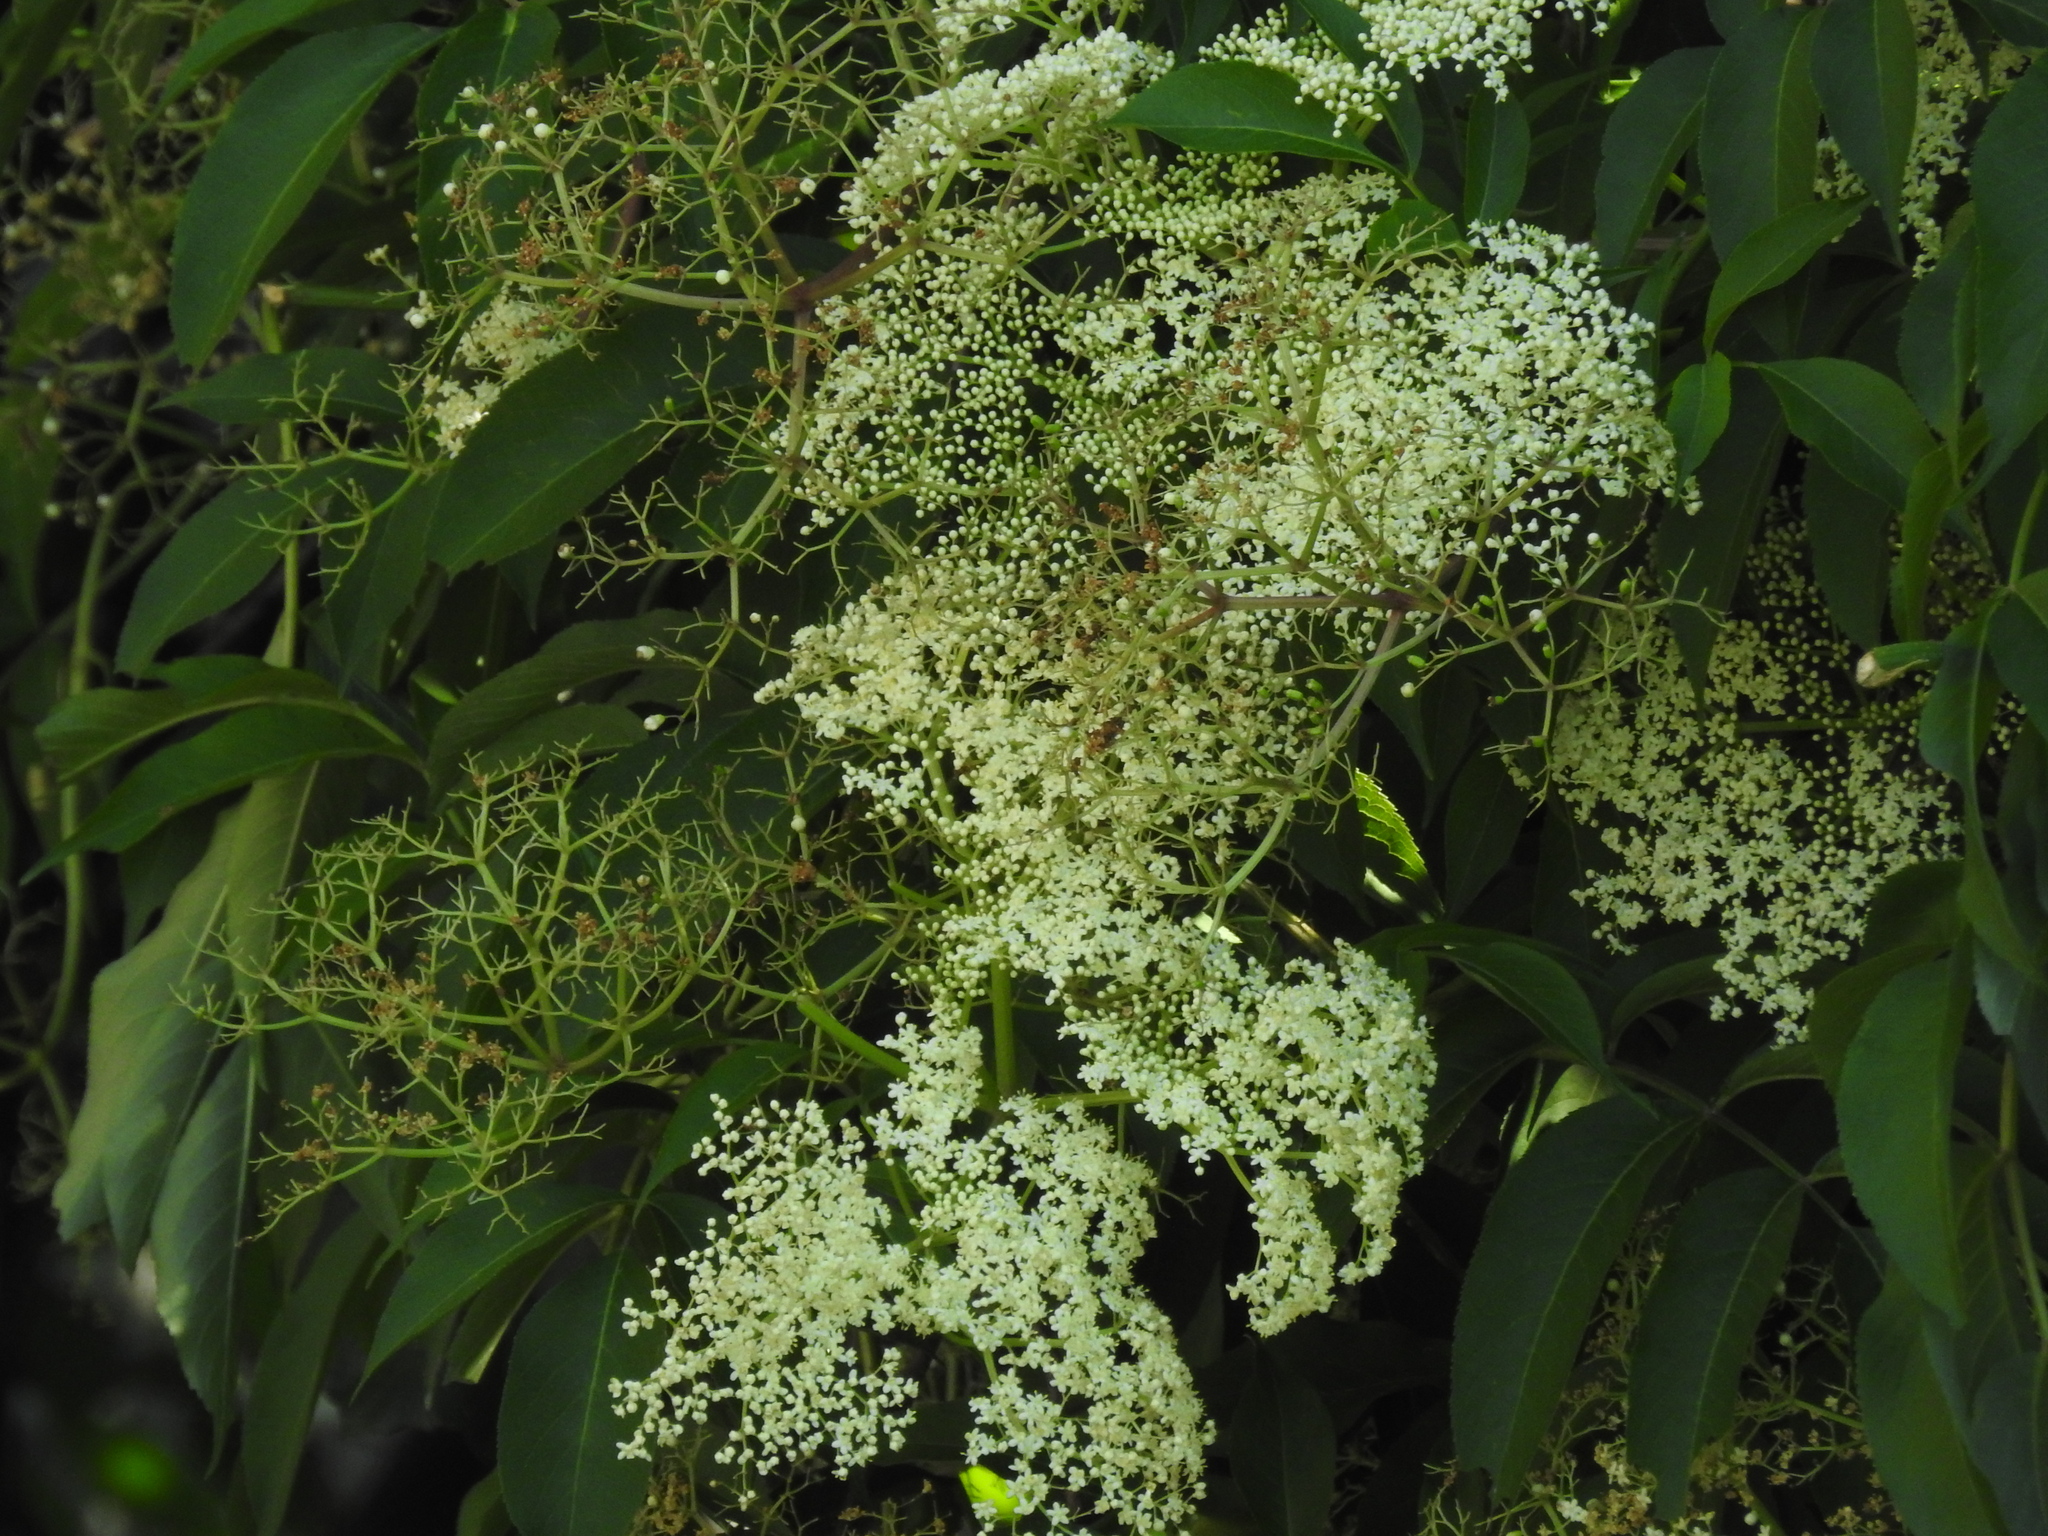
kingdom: Plantae
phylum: Tracheophyta
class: Magnoliopsida
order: Dipsacales
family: Viburnaceae
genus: Sambucus
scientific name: Sambucus canadensis
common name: American elder
